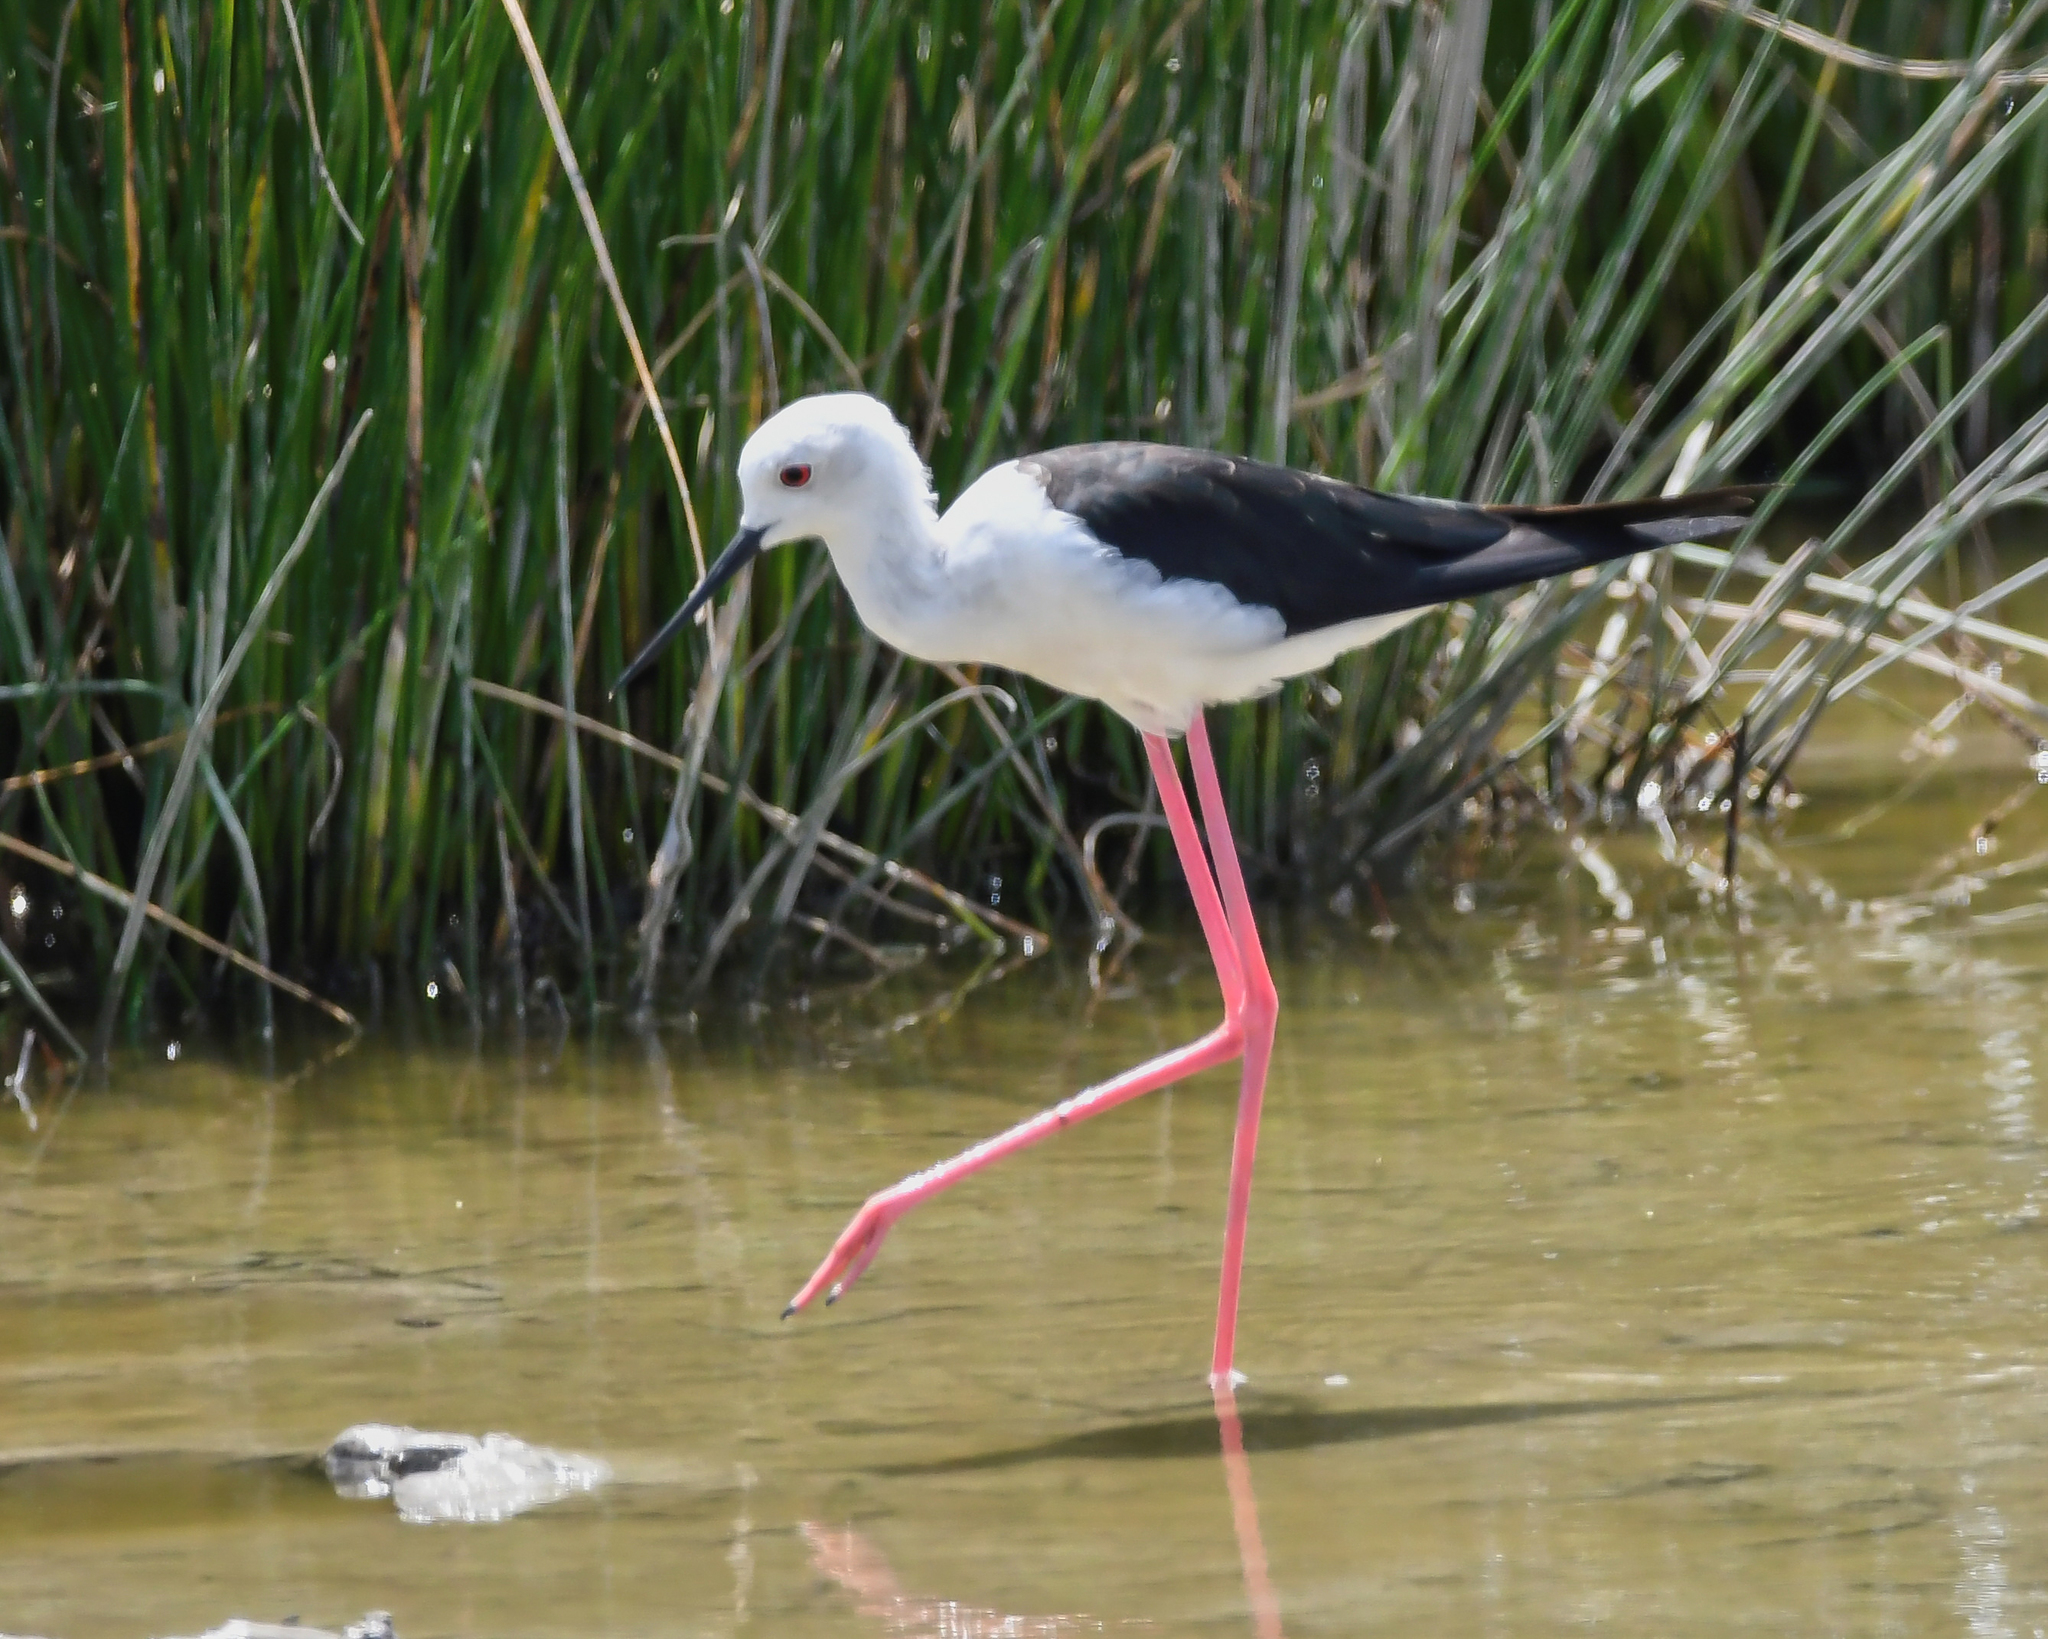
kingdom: Animalia
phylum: Chordata
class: Aves
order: Charadriiformes
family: Recurvirostridae
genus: Himantopus
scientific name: Himantopus himantopus
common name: Black-winged stilt
